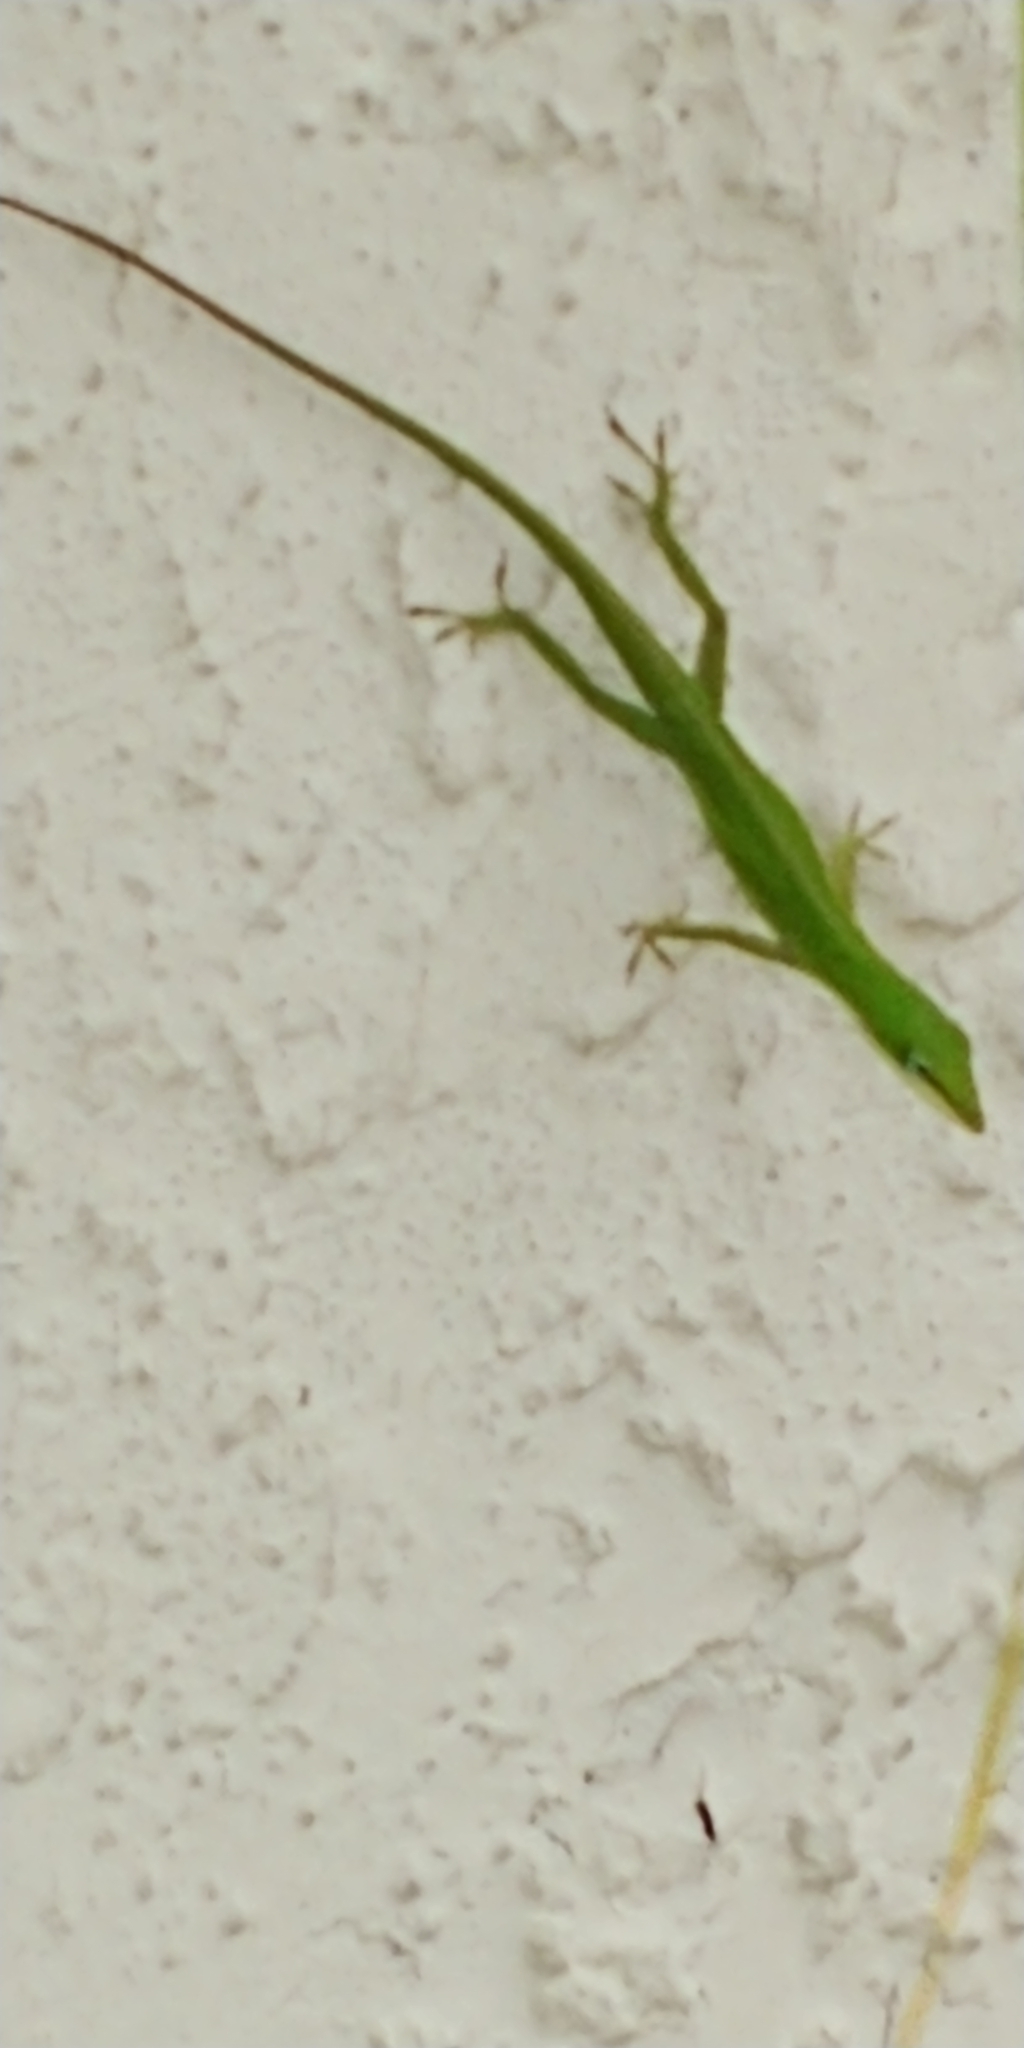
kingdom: Animalia
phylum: Chordata
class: Squamata
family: Dactyloidae
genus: Anolis
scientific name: Anolis carolinensis
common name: Green anole
